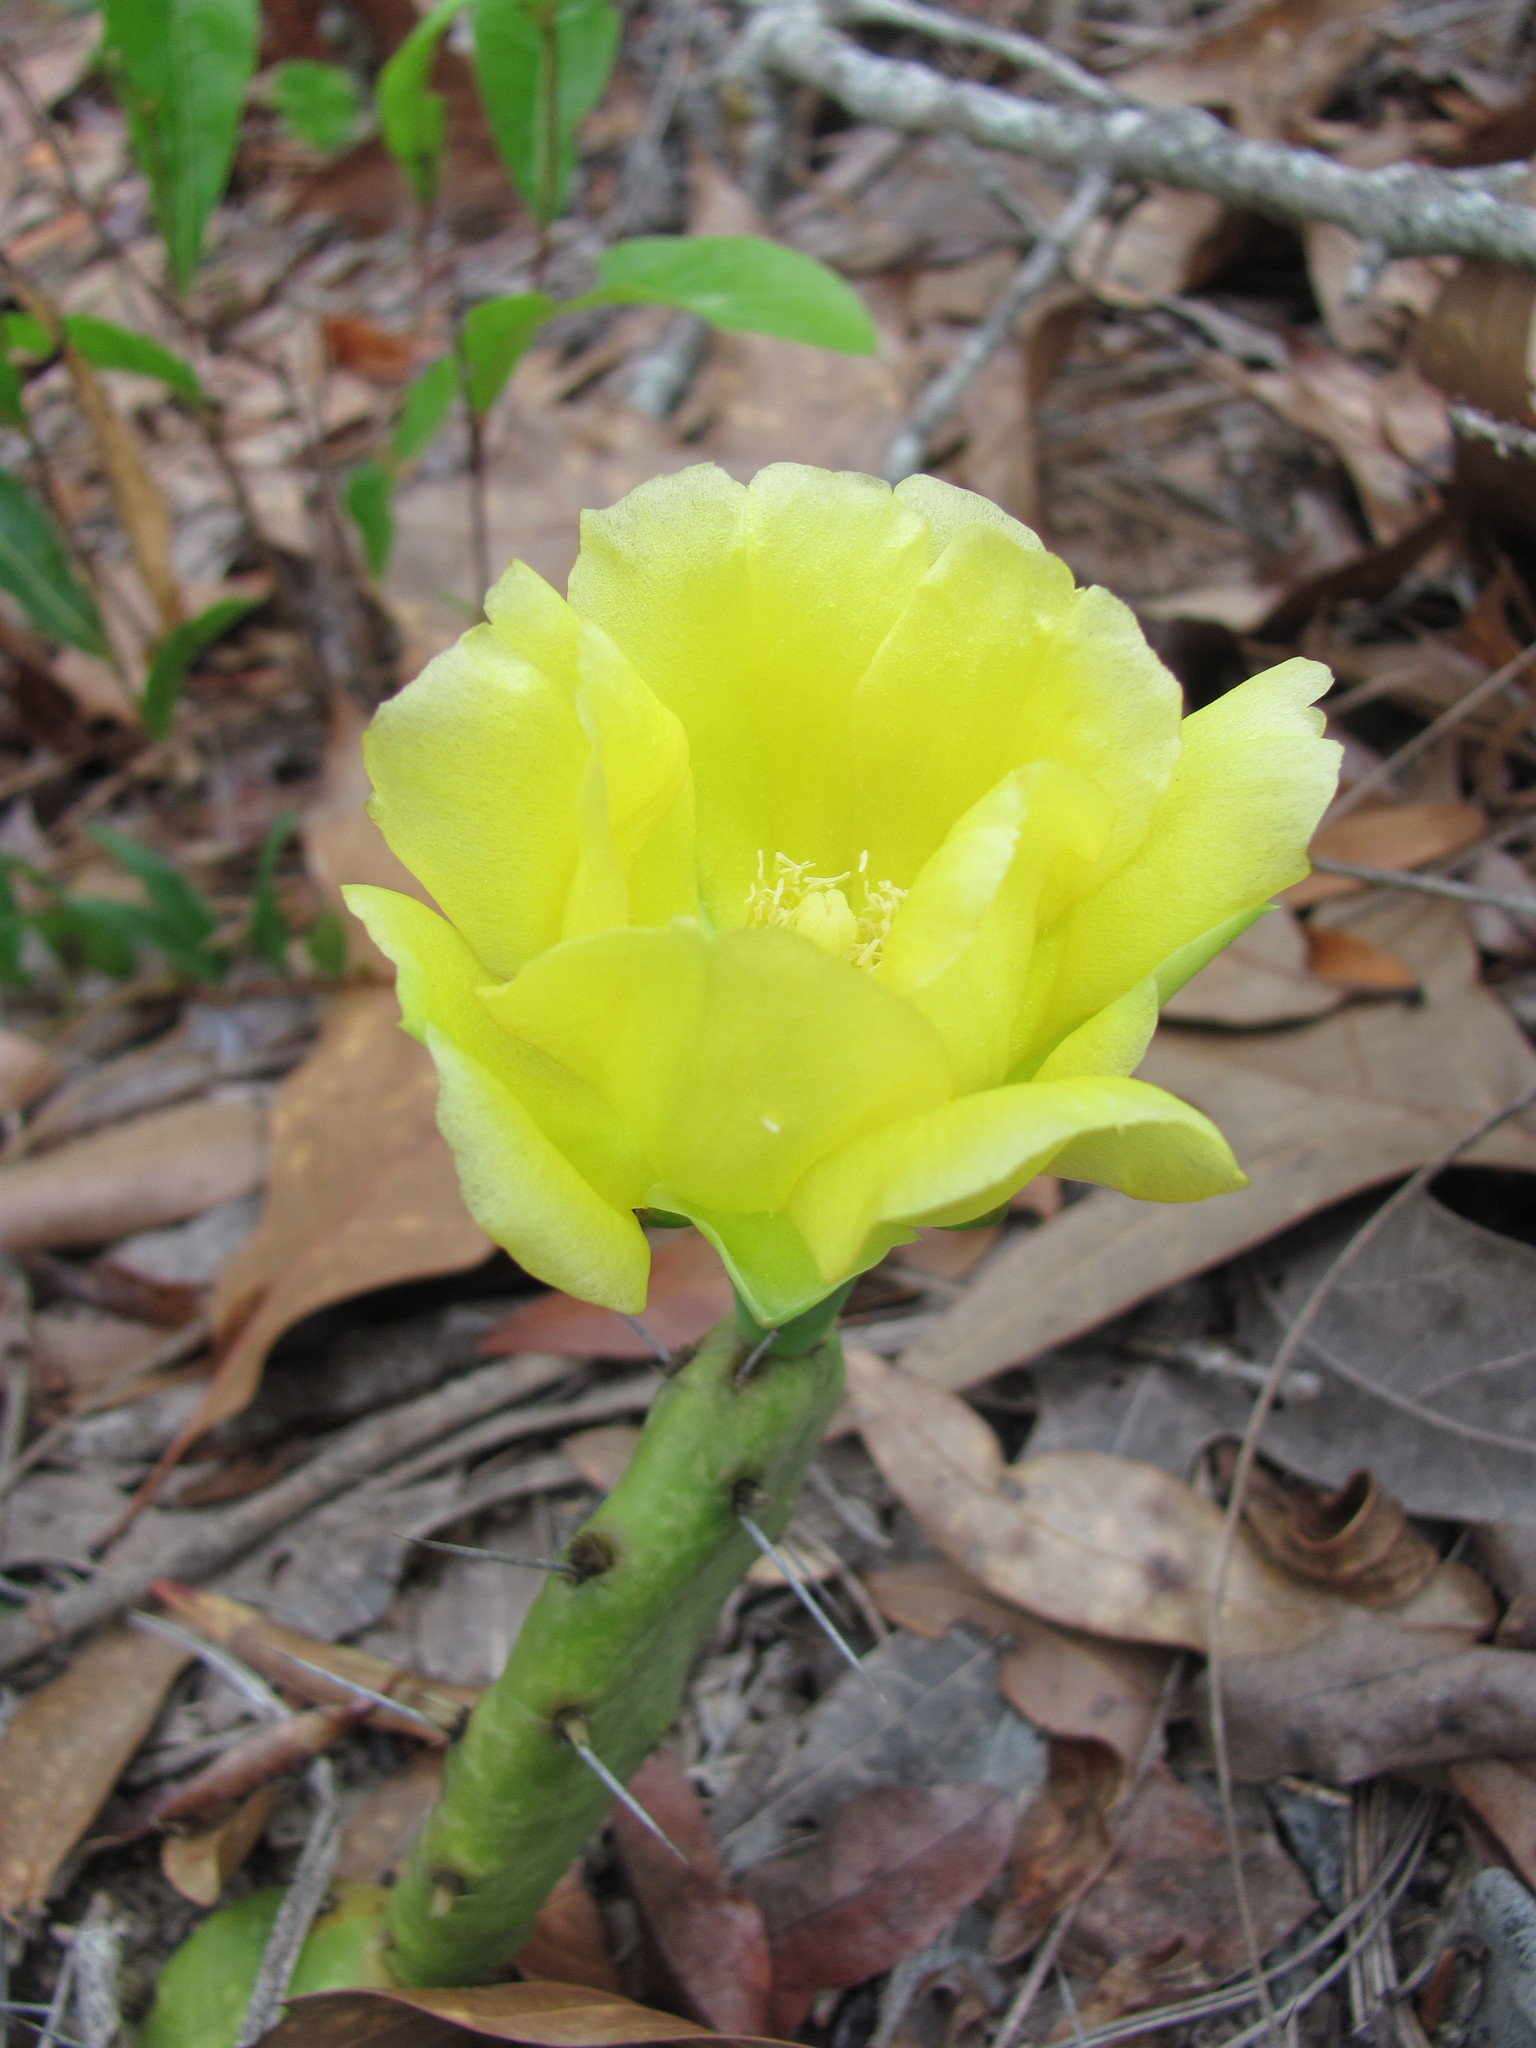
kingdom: Plantae
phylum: Tracheophyta
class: Magnoliopsida
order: Caryophyllales
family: Cactaceae
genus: Opuntia
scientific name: Opuntia mesacantha
